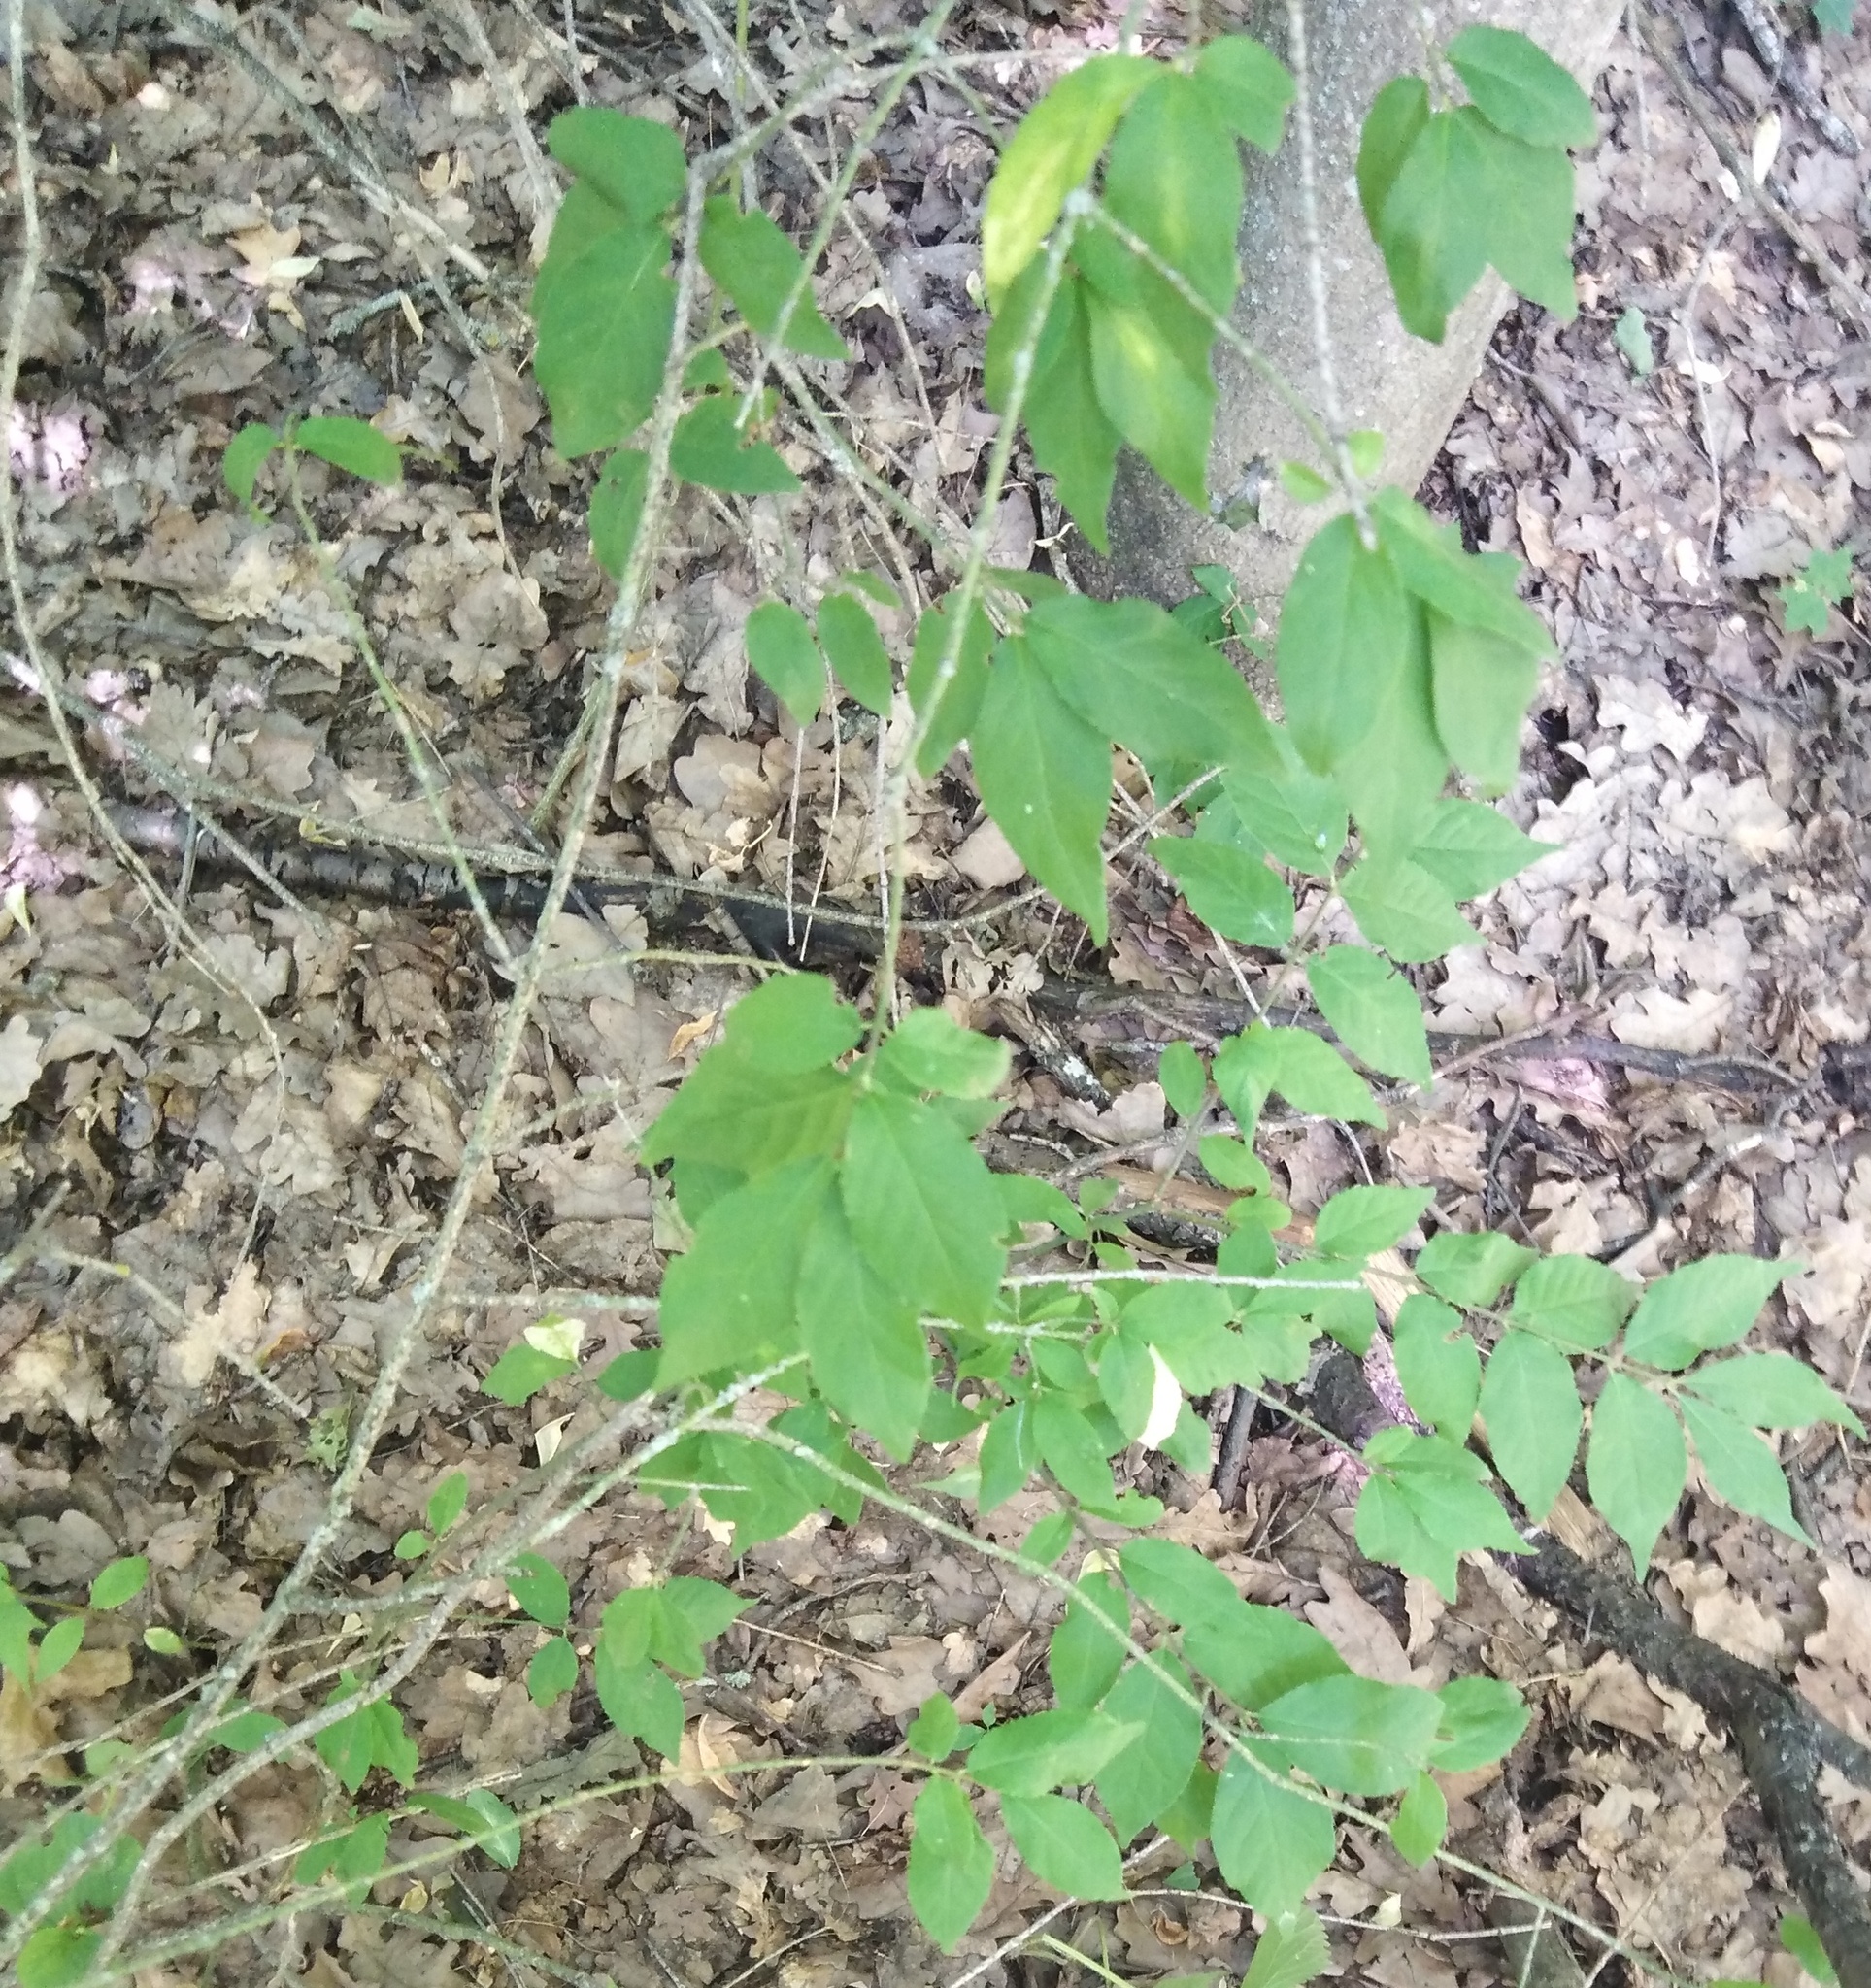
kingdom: Plantae
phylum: Tracheophyta
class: Magnoliopsida
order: Celastrales
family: Celastraceae
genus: Euonymus
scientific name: Euonymus verrucosus
